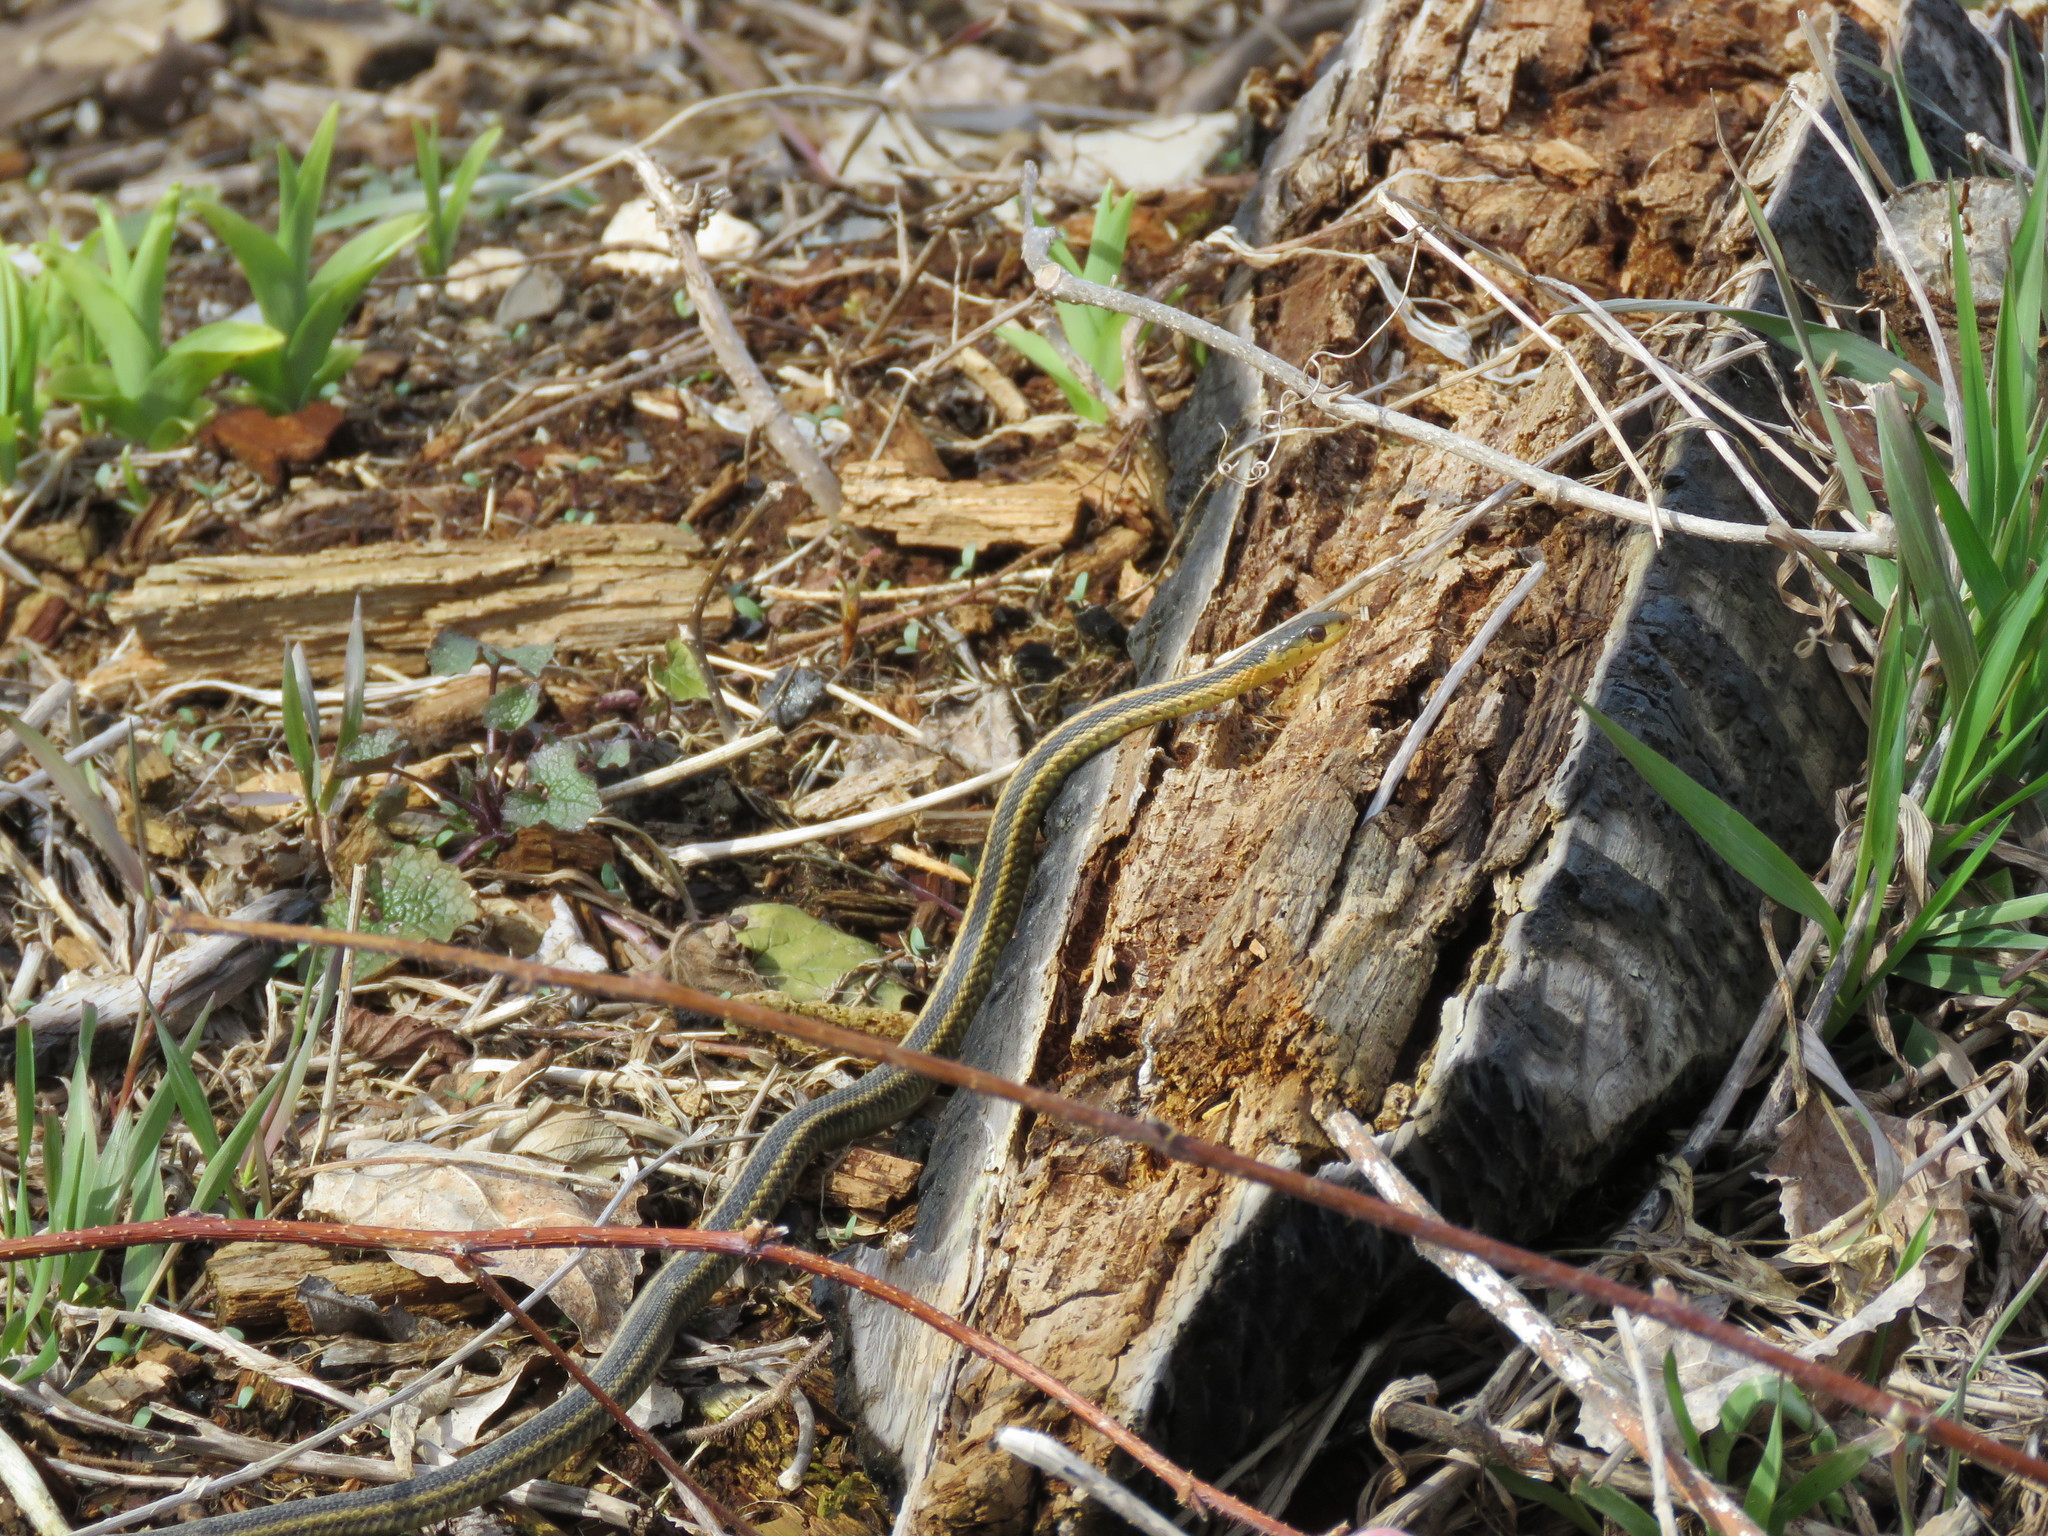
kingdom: Animalia
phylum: Chordata
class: Squamata
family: Colubridae
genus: Thamnophis
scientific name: Thamnophis sirtalis
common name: Common garter snake
